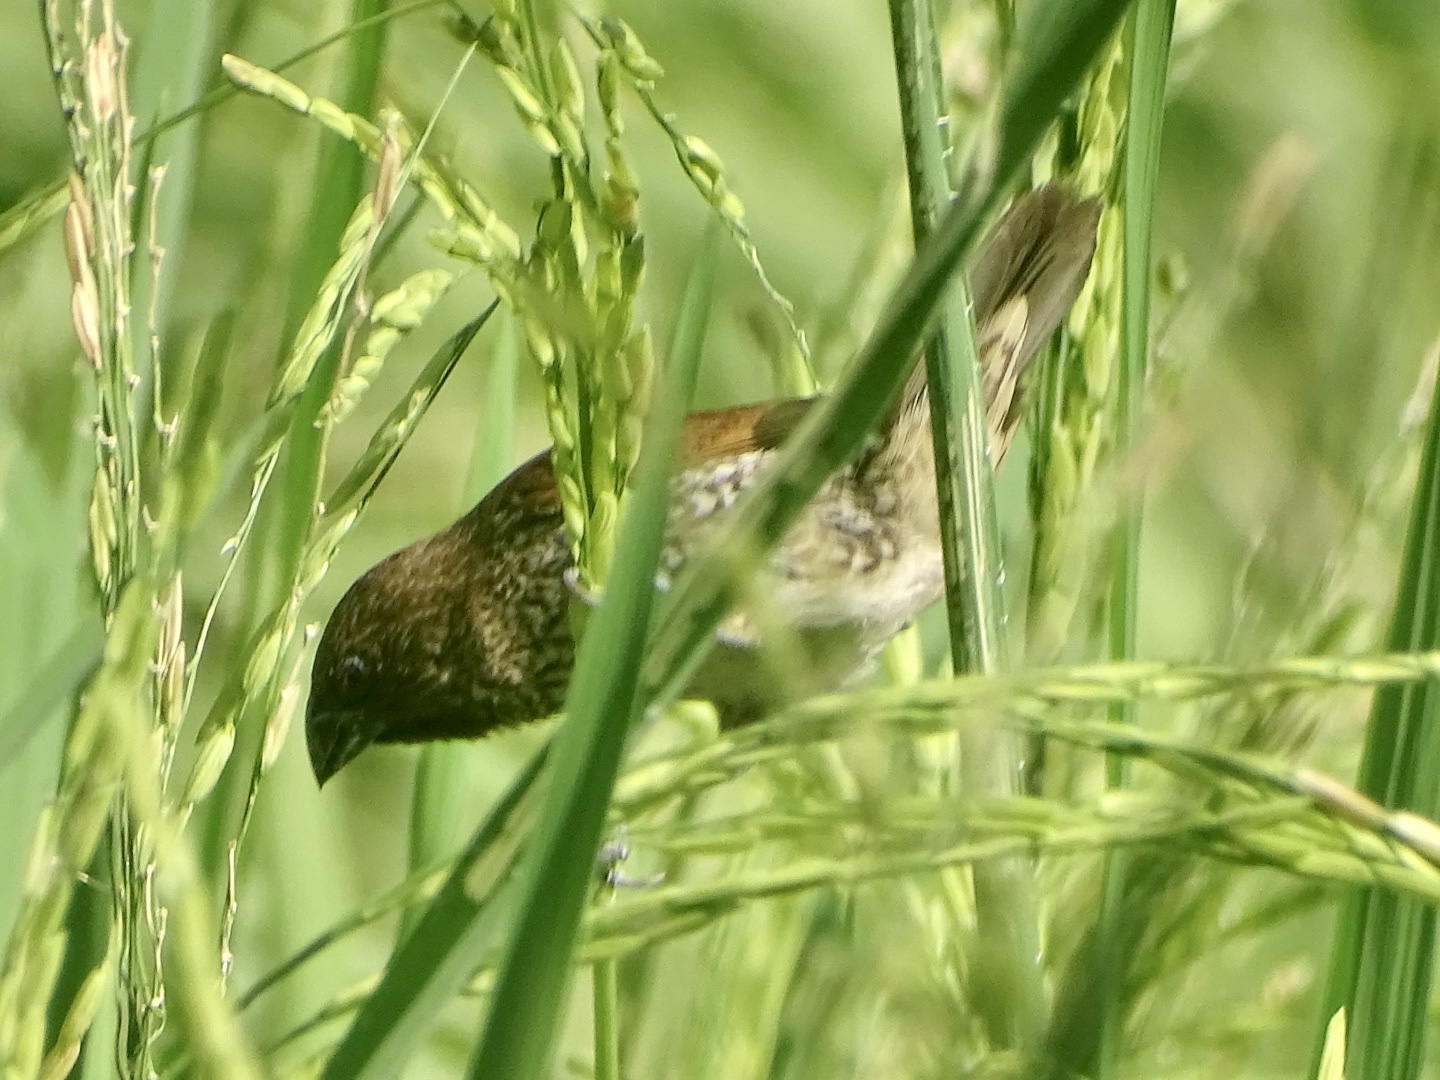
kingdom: Animalia
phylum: Chordata
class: Aves
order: Passeriformes
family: Estrildidae
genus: Lonchura
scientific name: Lonchura punctulata
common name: Scaly-breasted munia
